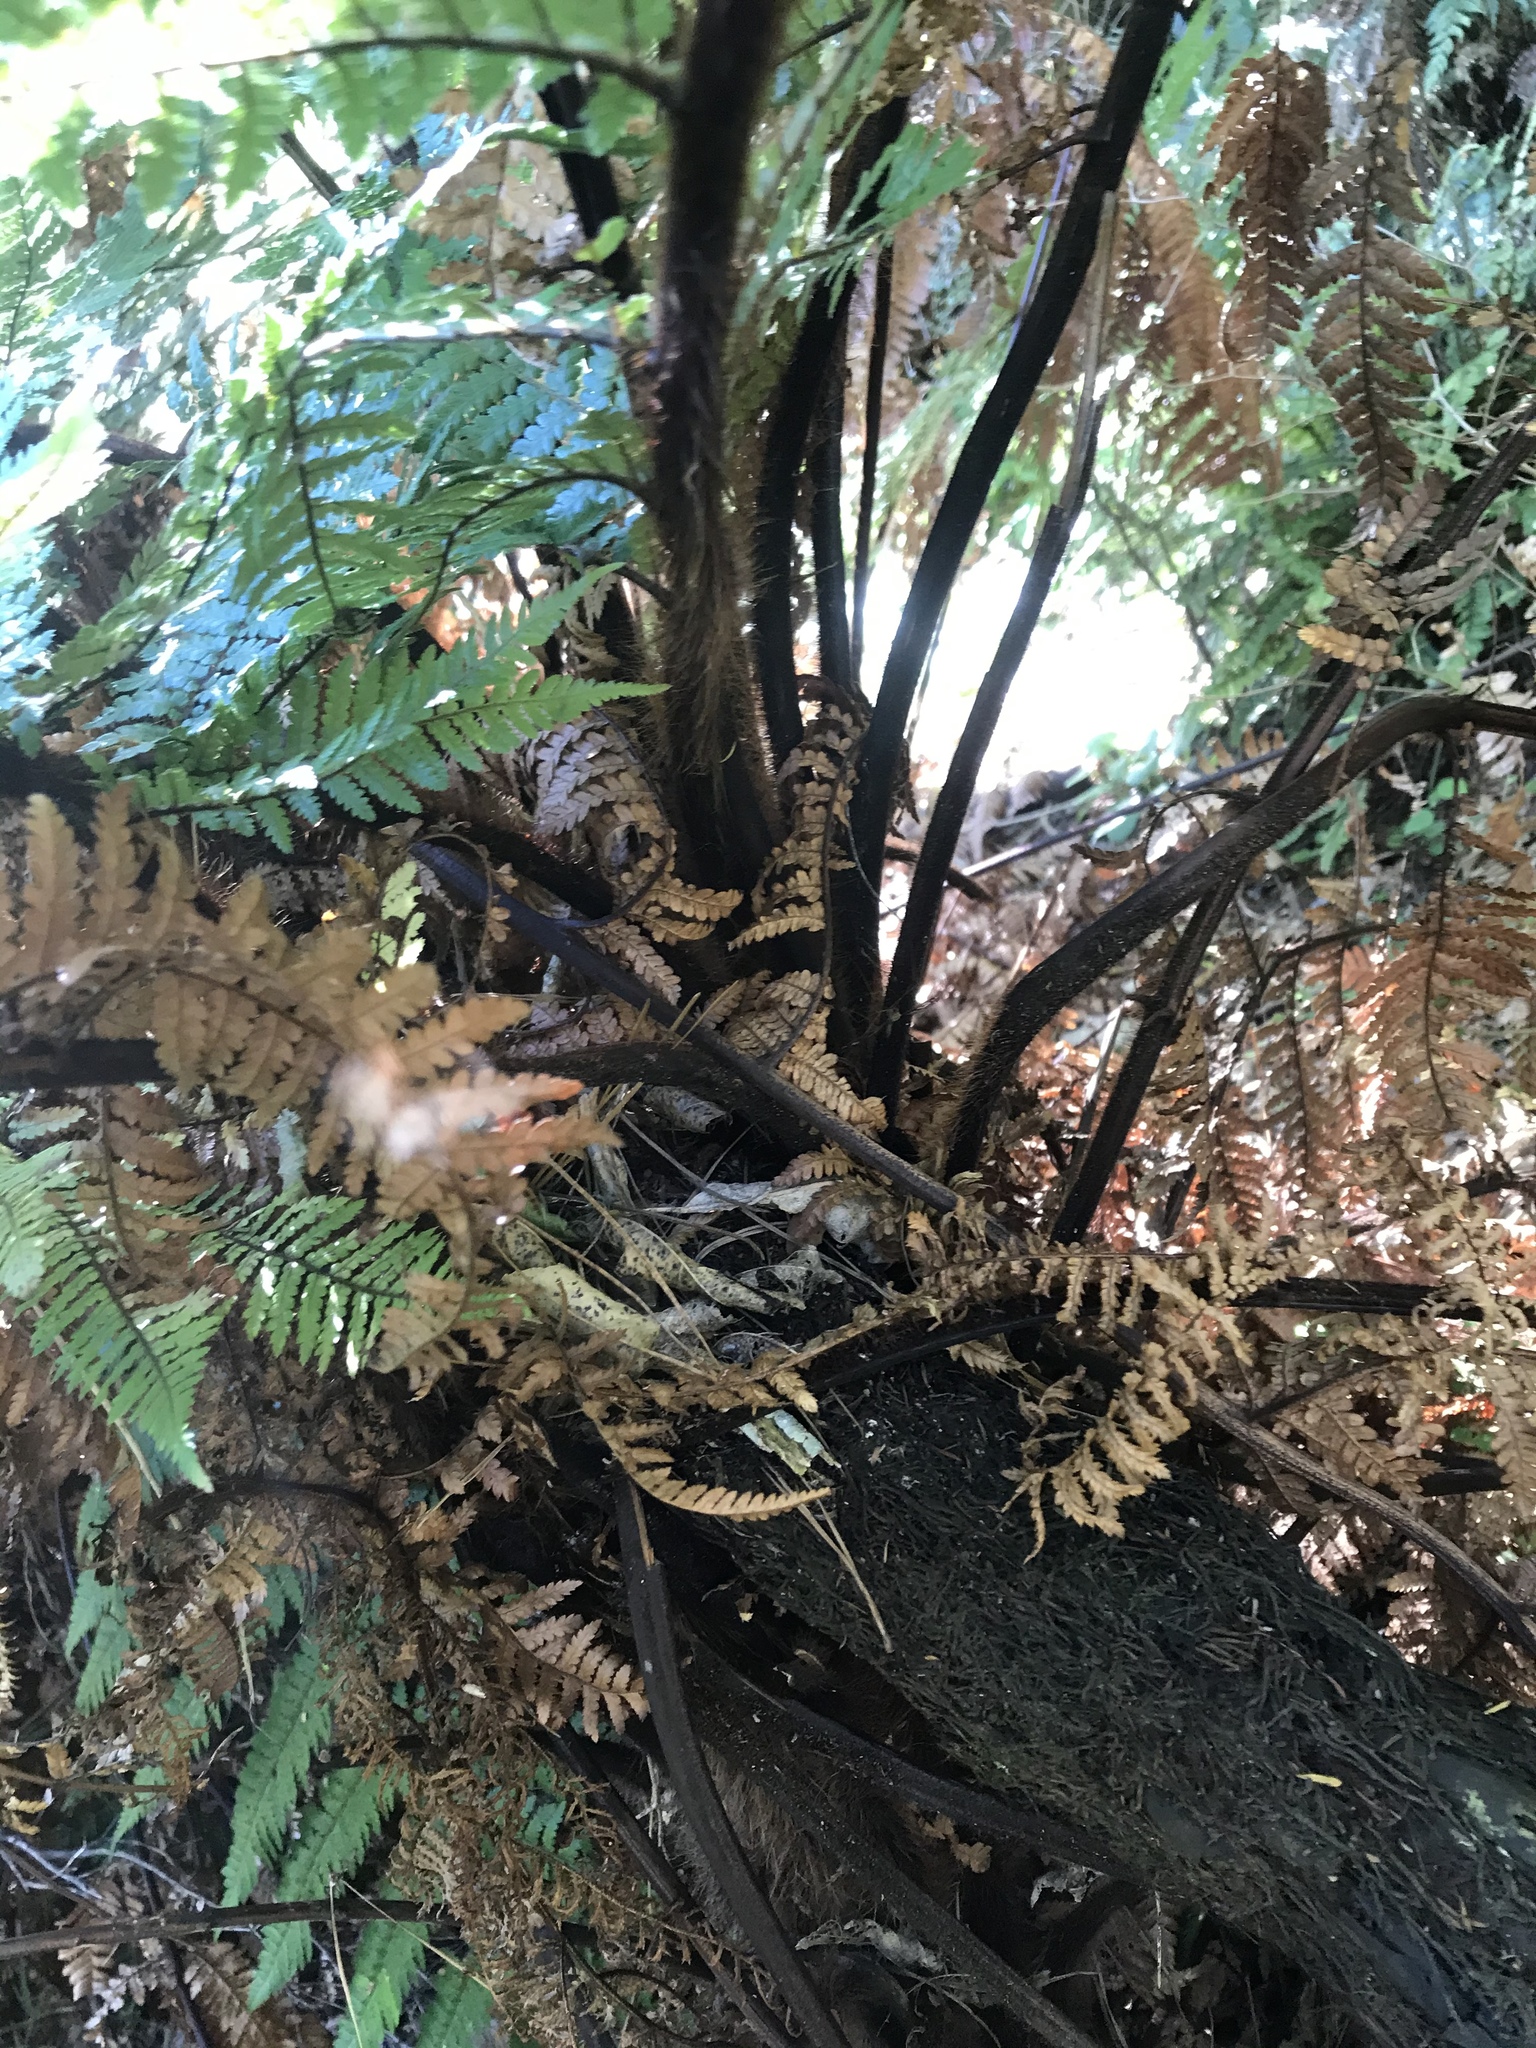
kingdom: Plantae
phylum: Tracheophyta
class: Polypodiopsida
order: Cyatheales
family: Dicksoniaceae
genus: Dicksonia
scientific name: Dicksonia squarrosa
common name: Hard treefern
